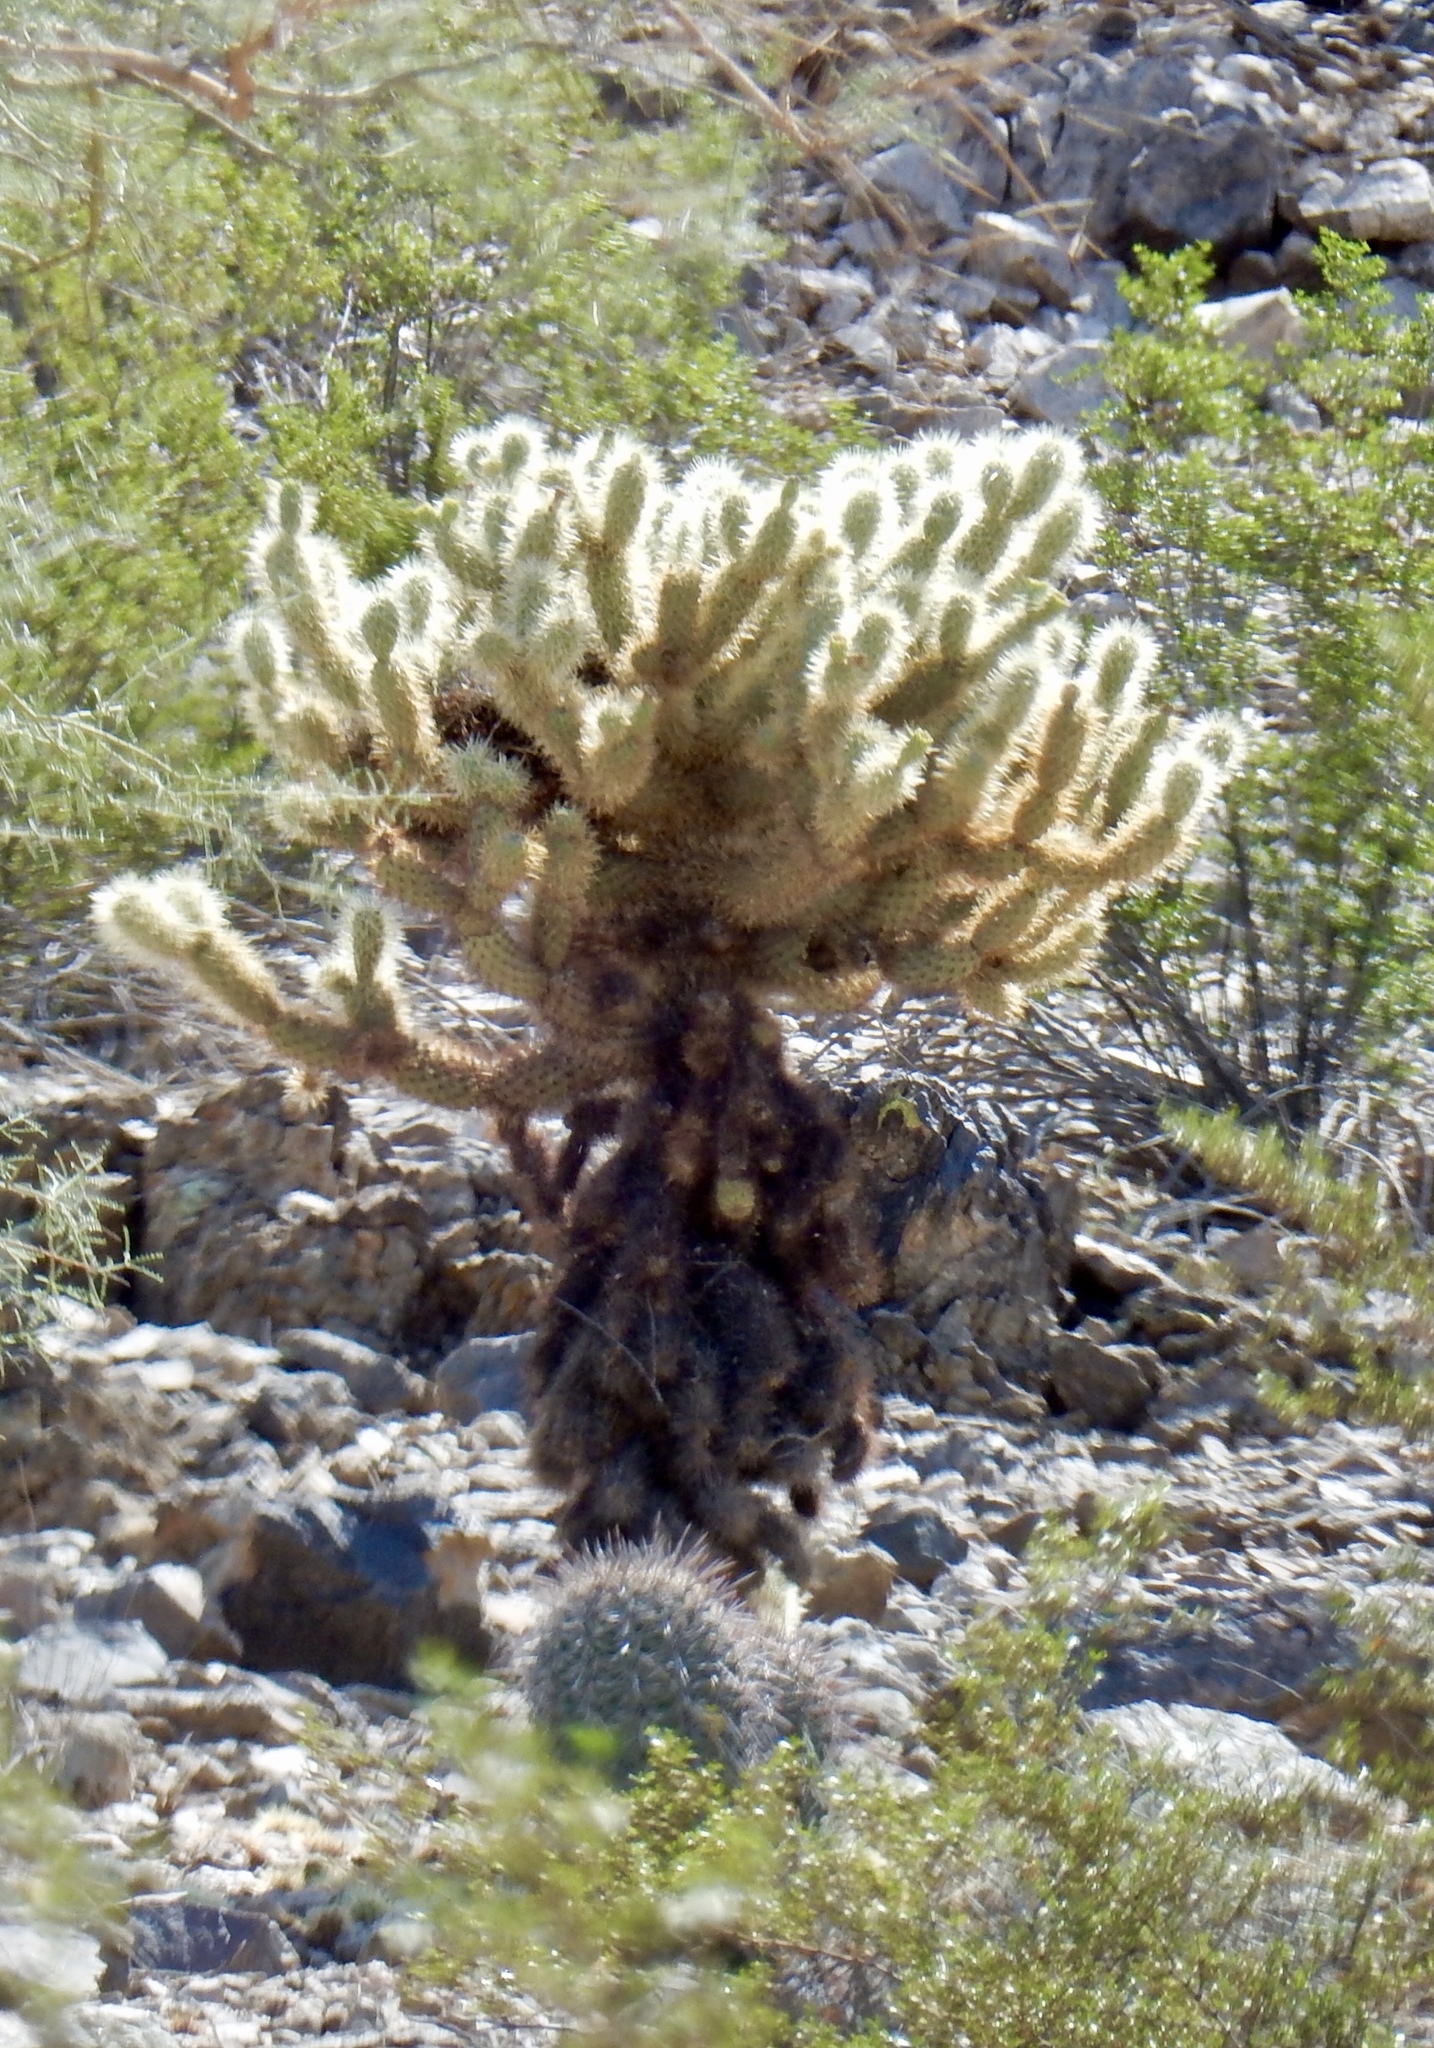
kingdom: Plantae
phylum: Tracheophyta
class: Magnoliopsida
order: Caryophyllales
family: Cactaceae
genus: Cylindropuntia
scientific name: Cylindropuntia fosbergii
